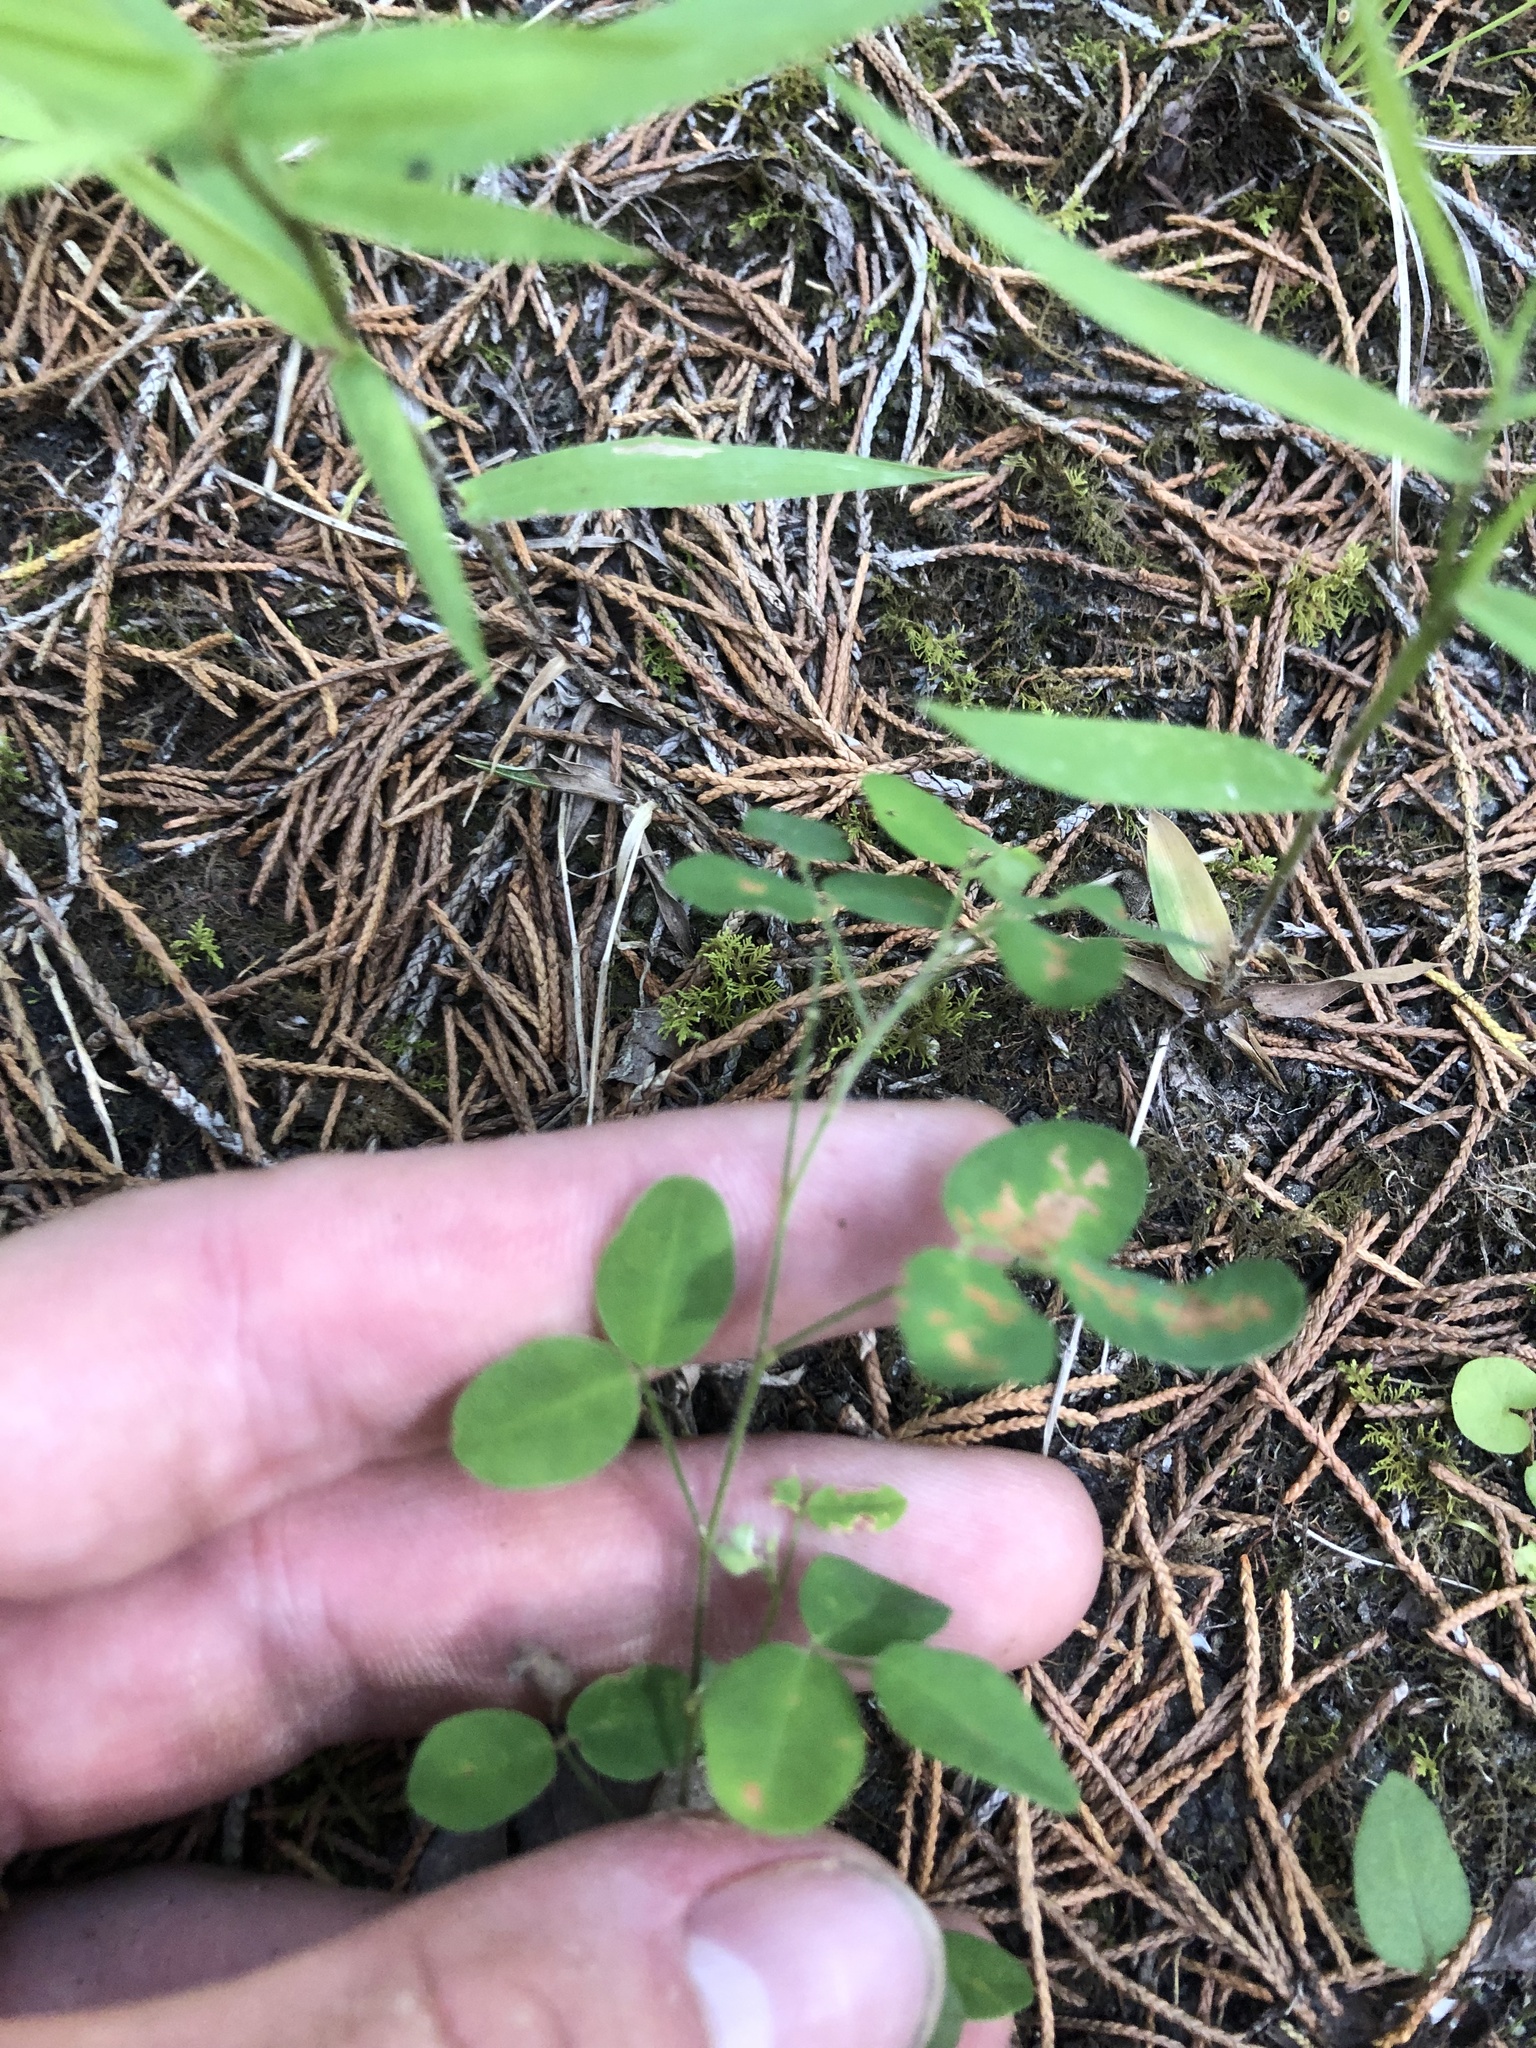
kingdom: Plantae
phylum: Tracheophyta
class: Magnoliopsida
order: Fabales
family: Fabaceae
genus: Lespedeza
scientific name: Lespedeza procumbens
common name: Downy trailing bush-clover
